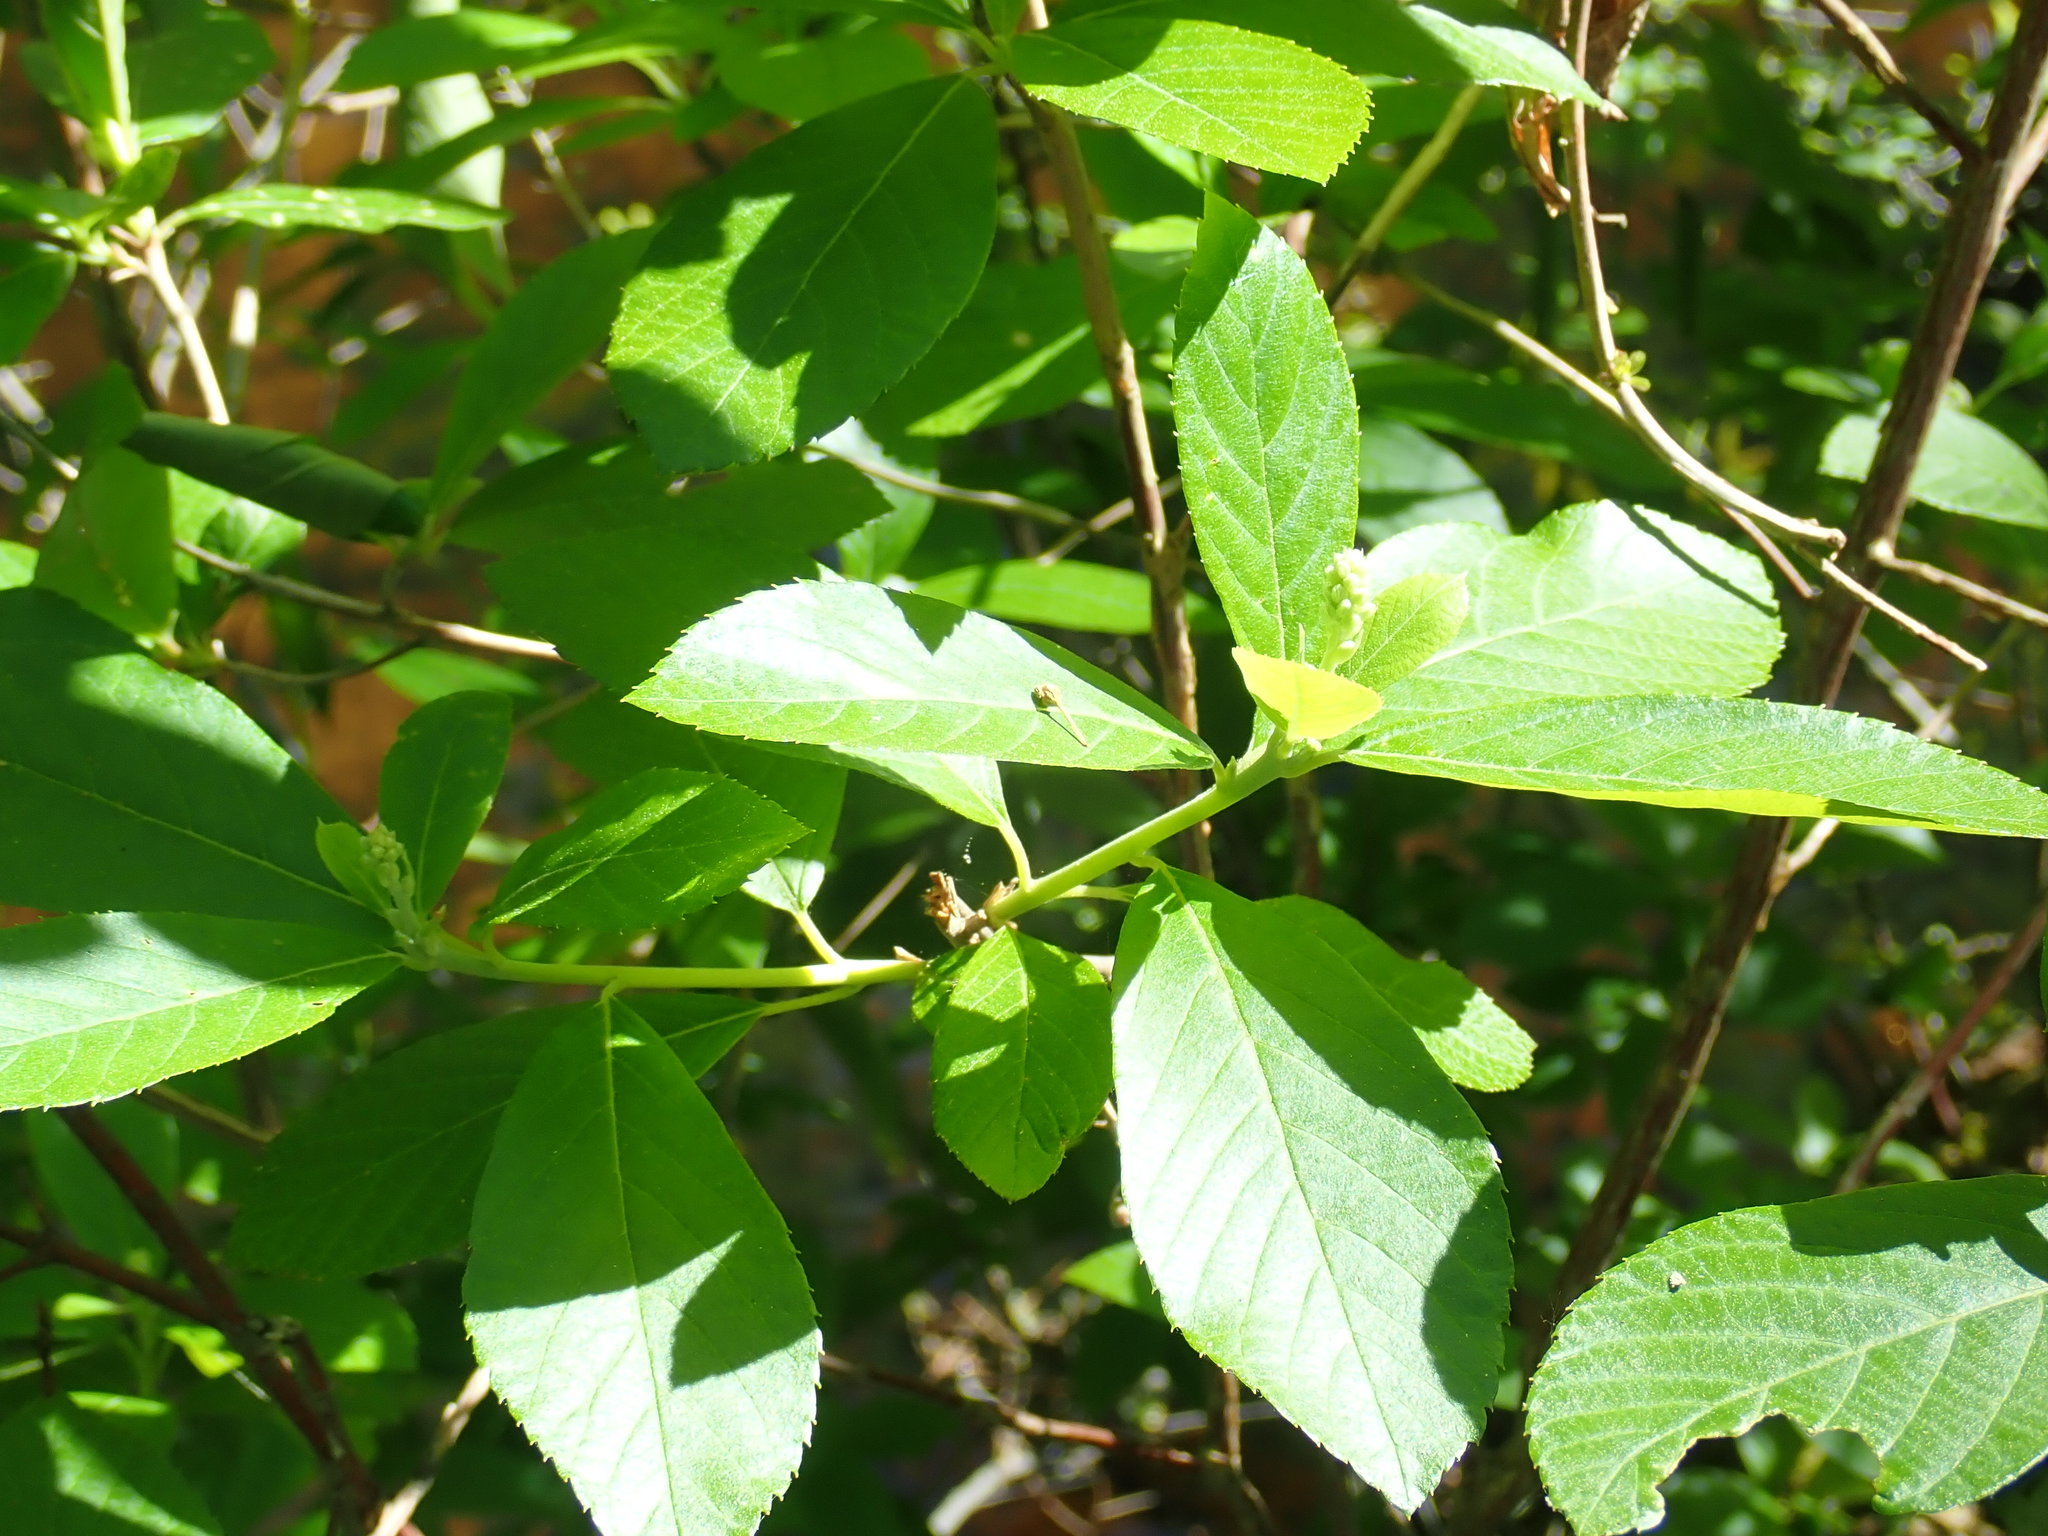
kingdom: Plantae
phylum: Tracheophyta
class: Magnoliopsida
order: Ericales
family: Clethraceae
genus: Clethra
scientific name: Clethra alnifolia
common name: Sweet pepperbush
